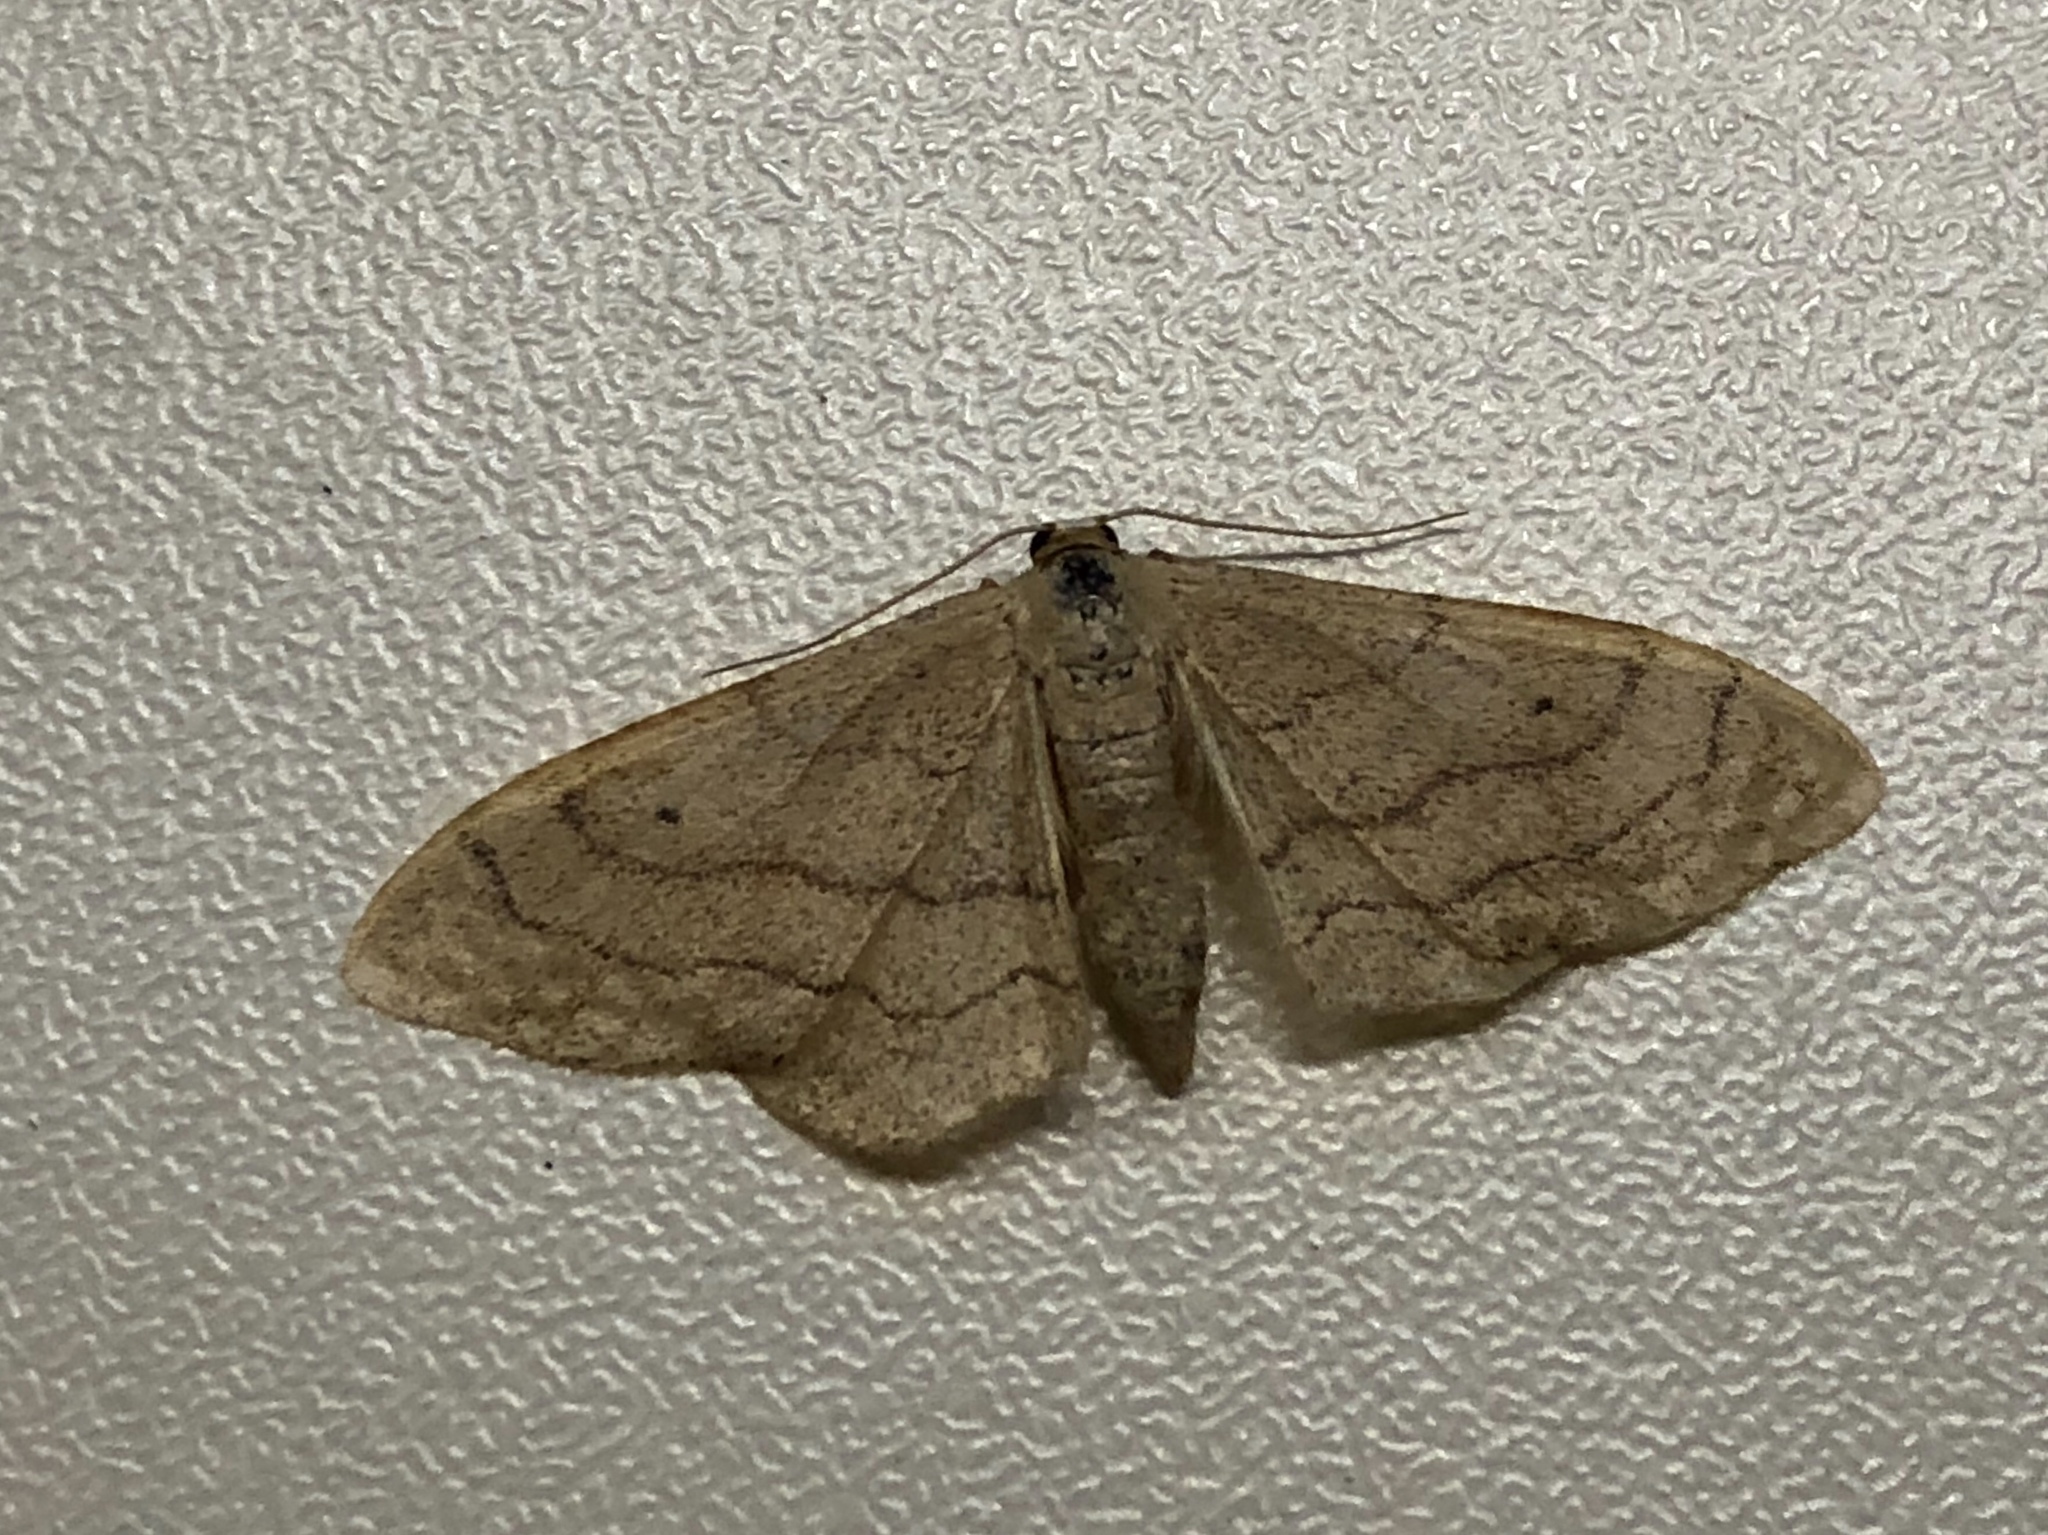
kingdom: Animalia
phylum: Arthropoda
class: Insecta
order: Lepidoptera
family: Geometridae
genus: Idaea
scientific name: Idaea aversata
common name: Riband wave
